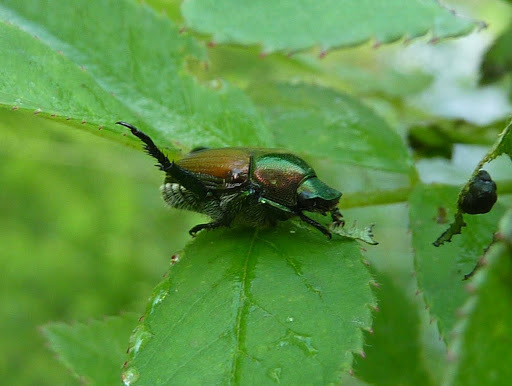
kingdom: Animalia
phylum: Arthropoda
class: Insecta
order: Coleoptera
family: Scarabaeidae
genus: Popillia
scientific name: Popillia japonica
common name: Japanese beetle
